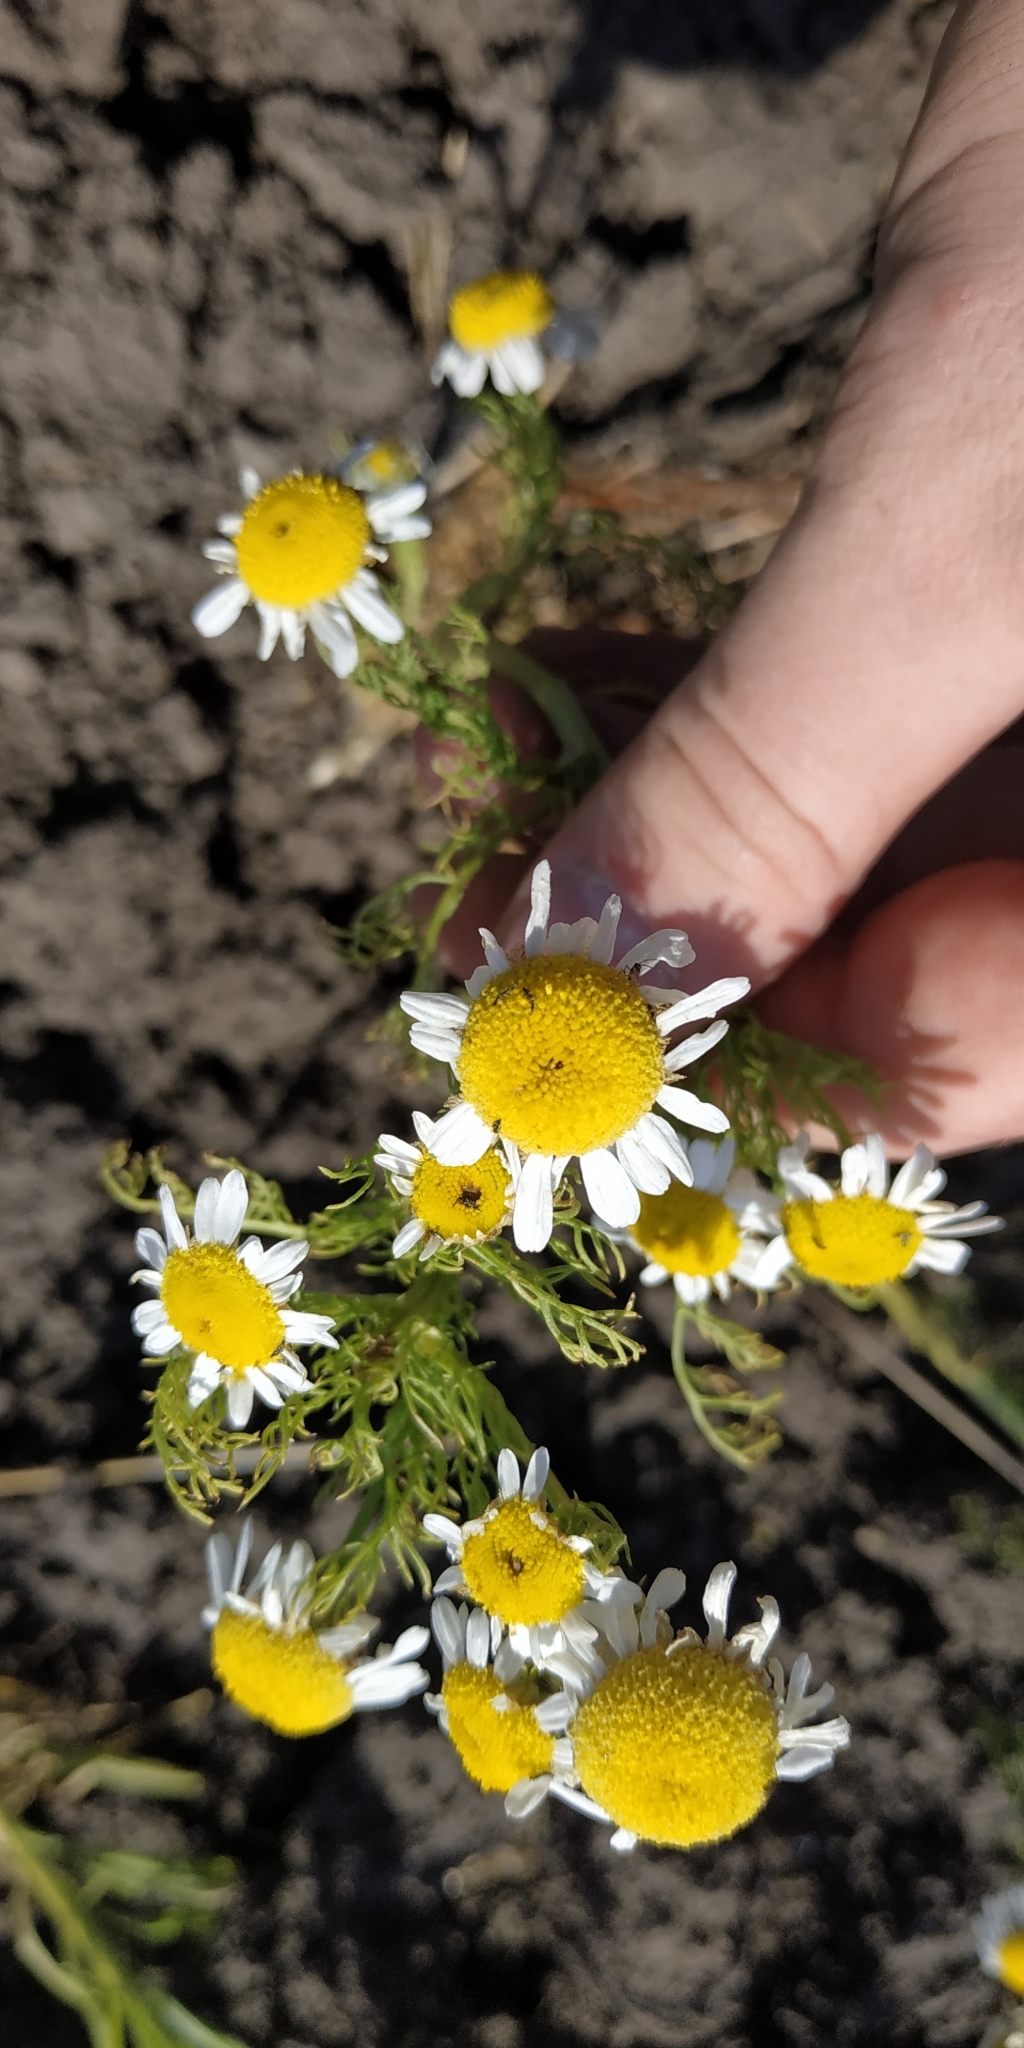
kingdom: Plantae
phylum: Tracheophyta
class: Magnoliopsida
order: Asterales
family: Asteraceae
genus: Tripleurospermum
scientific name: Tripleurospermum inodorum
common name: Scentless mayweed
